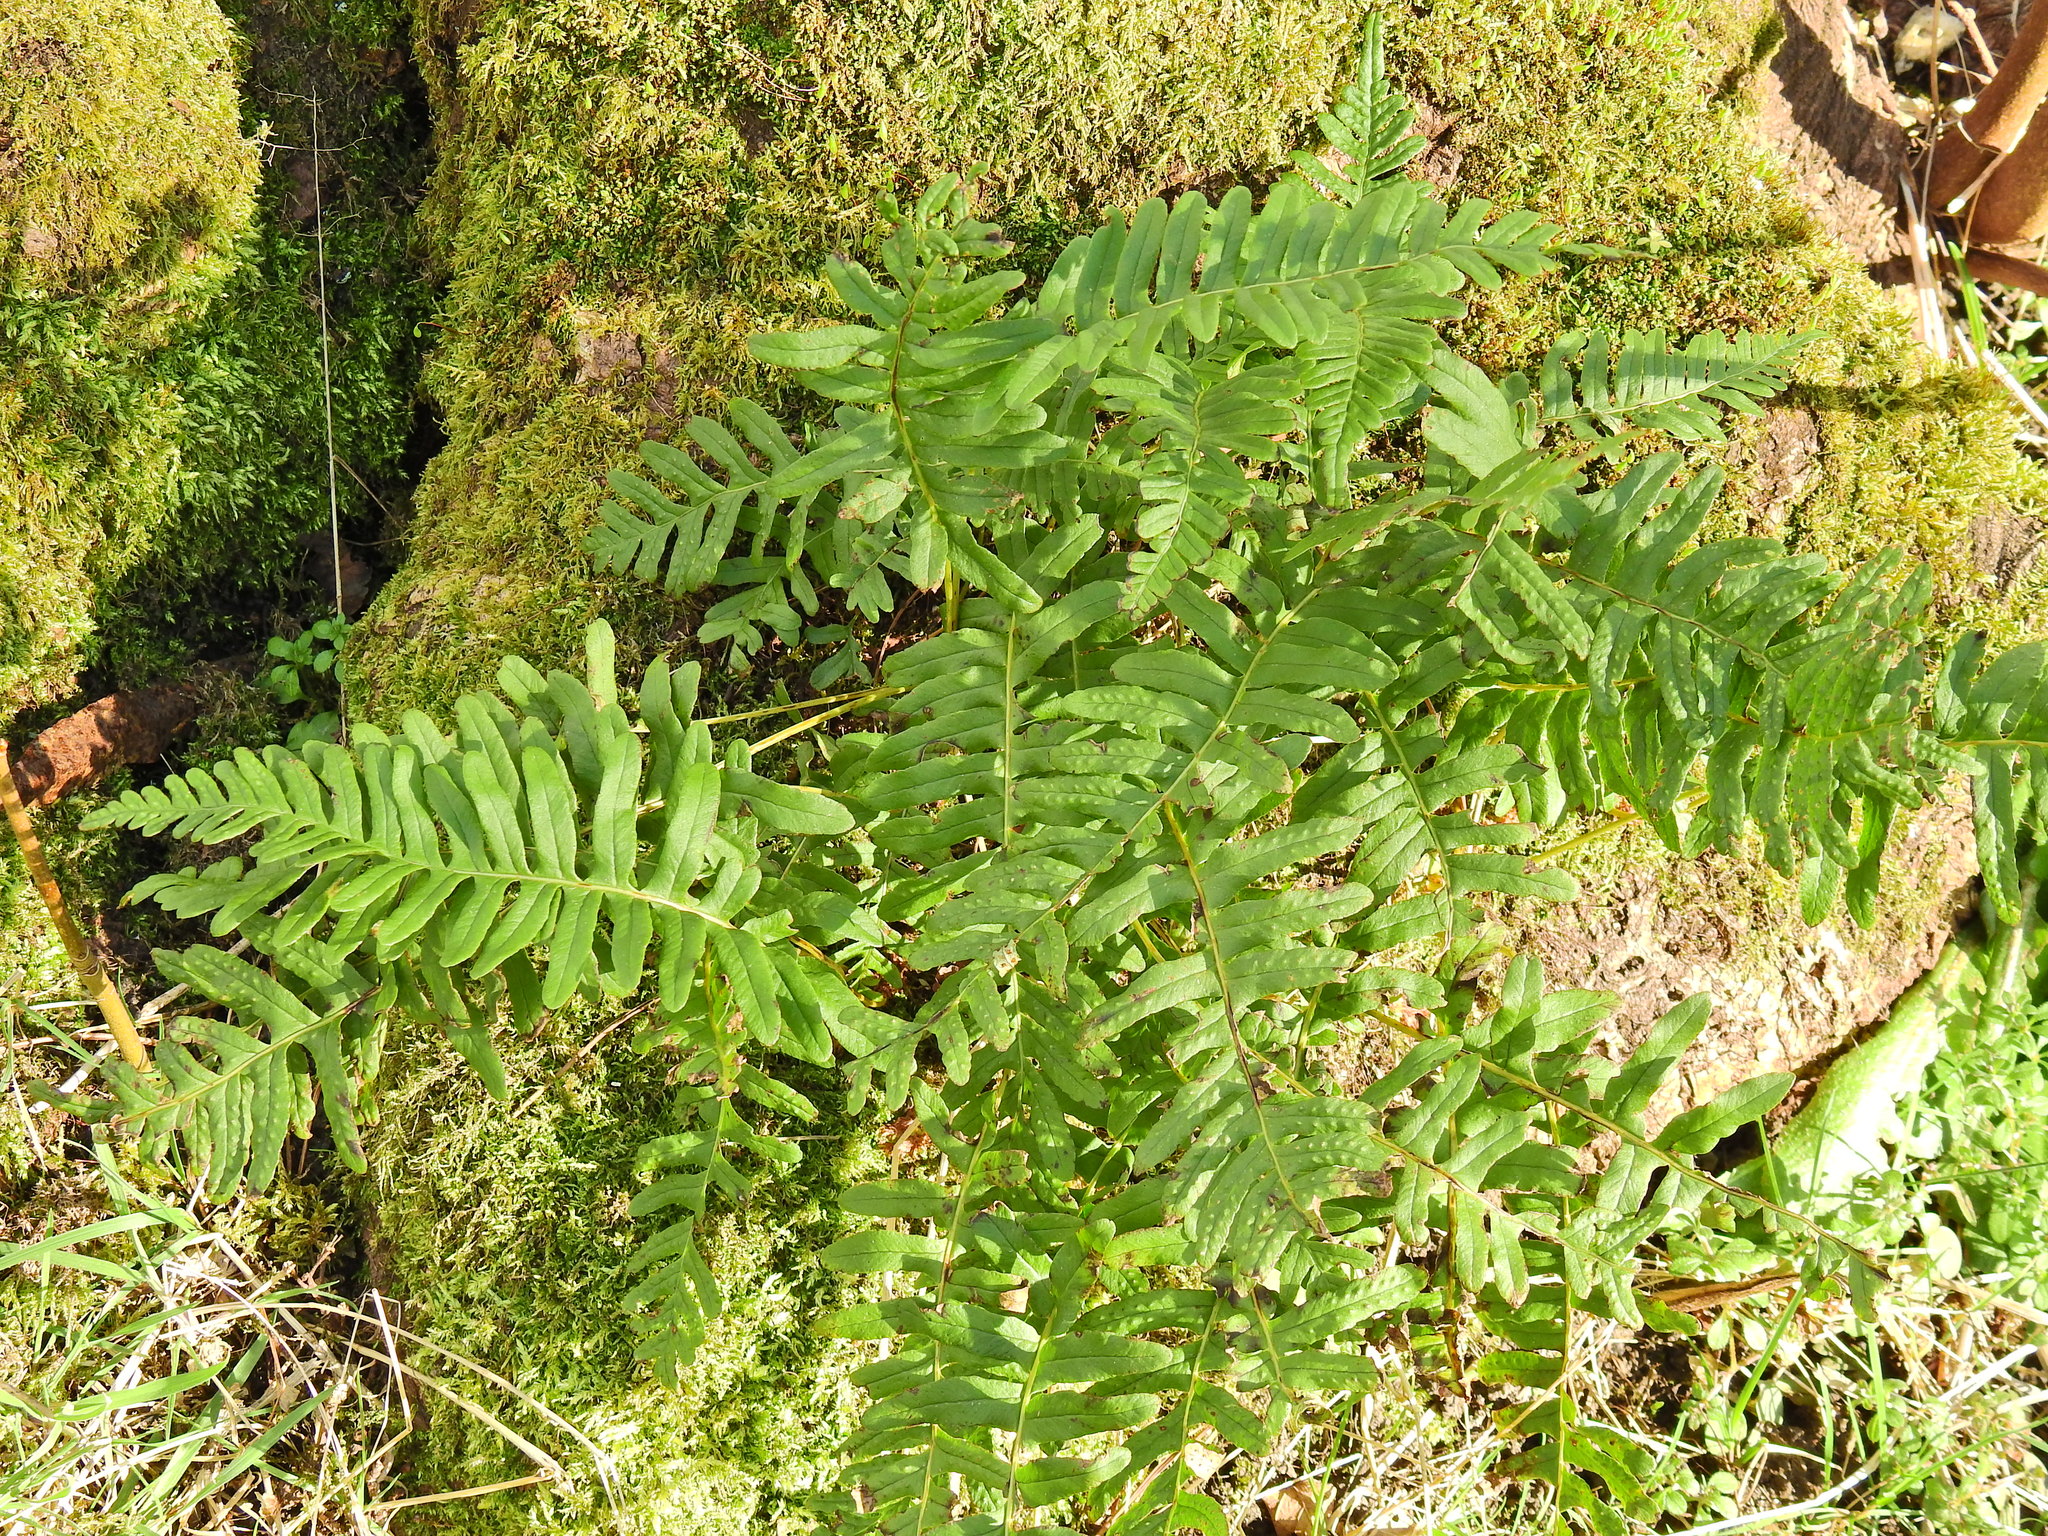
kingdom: Plantae
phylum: Tracheophyta
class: Polypodiopsida
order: Polypodiales
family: Polypodiaceae
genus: Polypodium
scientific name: Polypodium vulgare
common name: Common polypody
